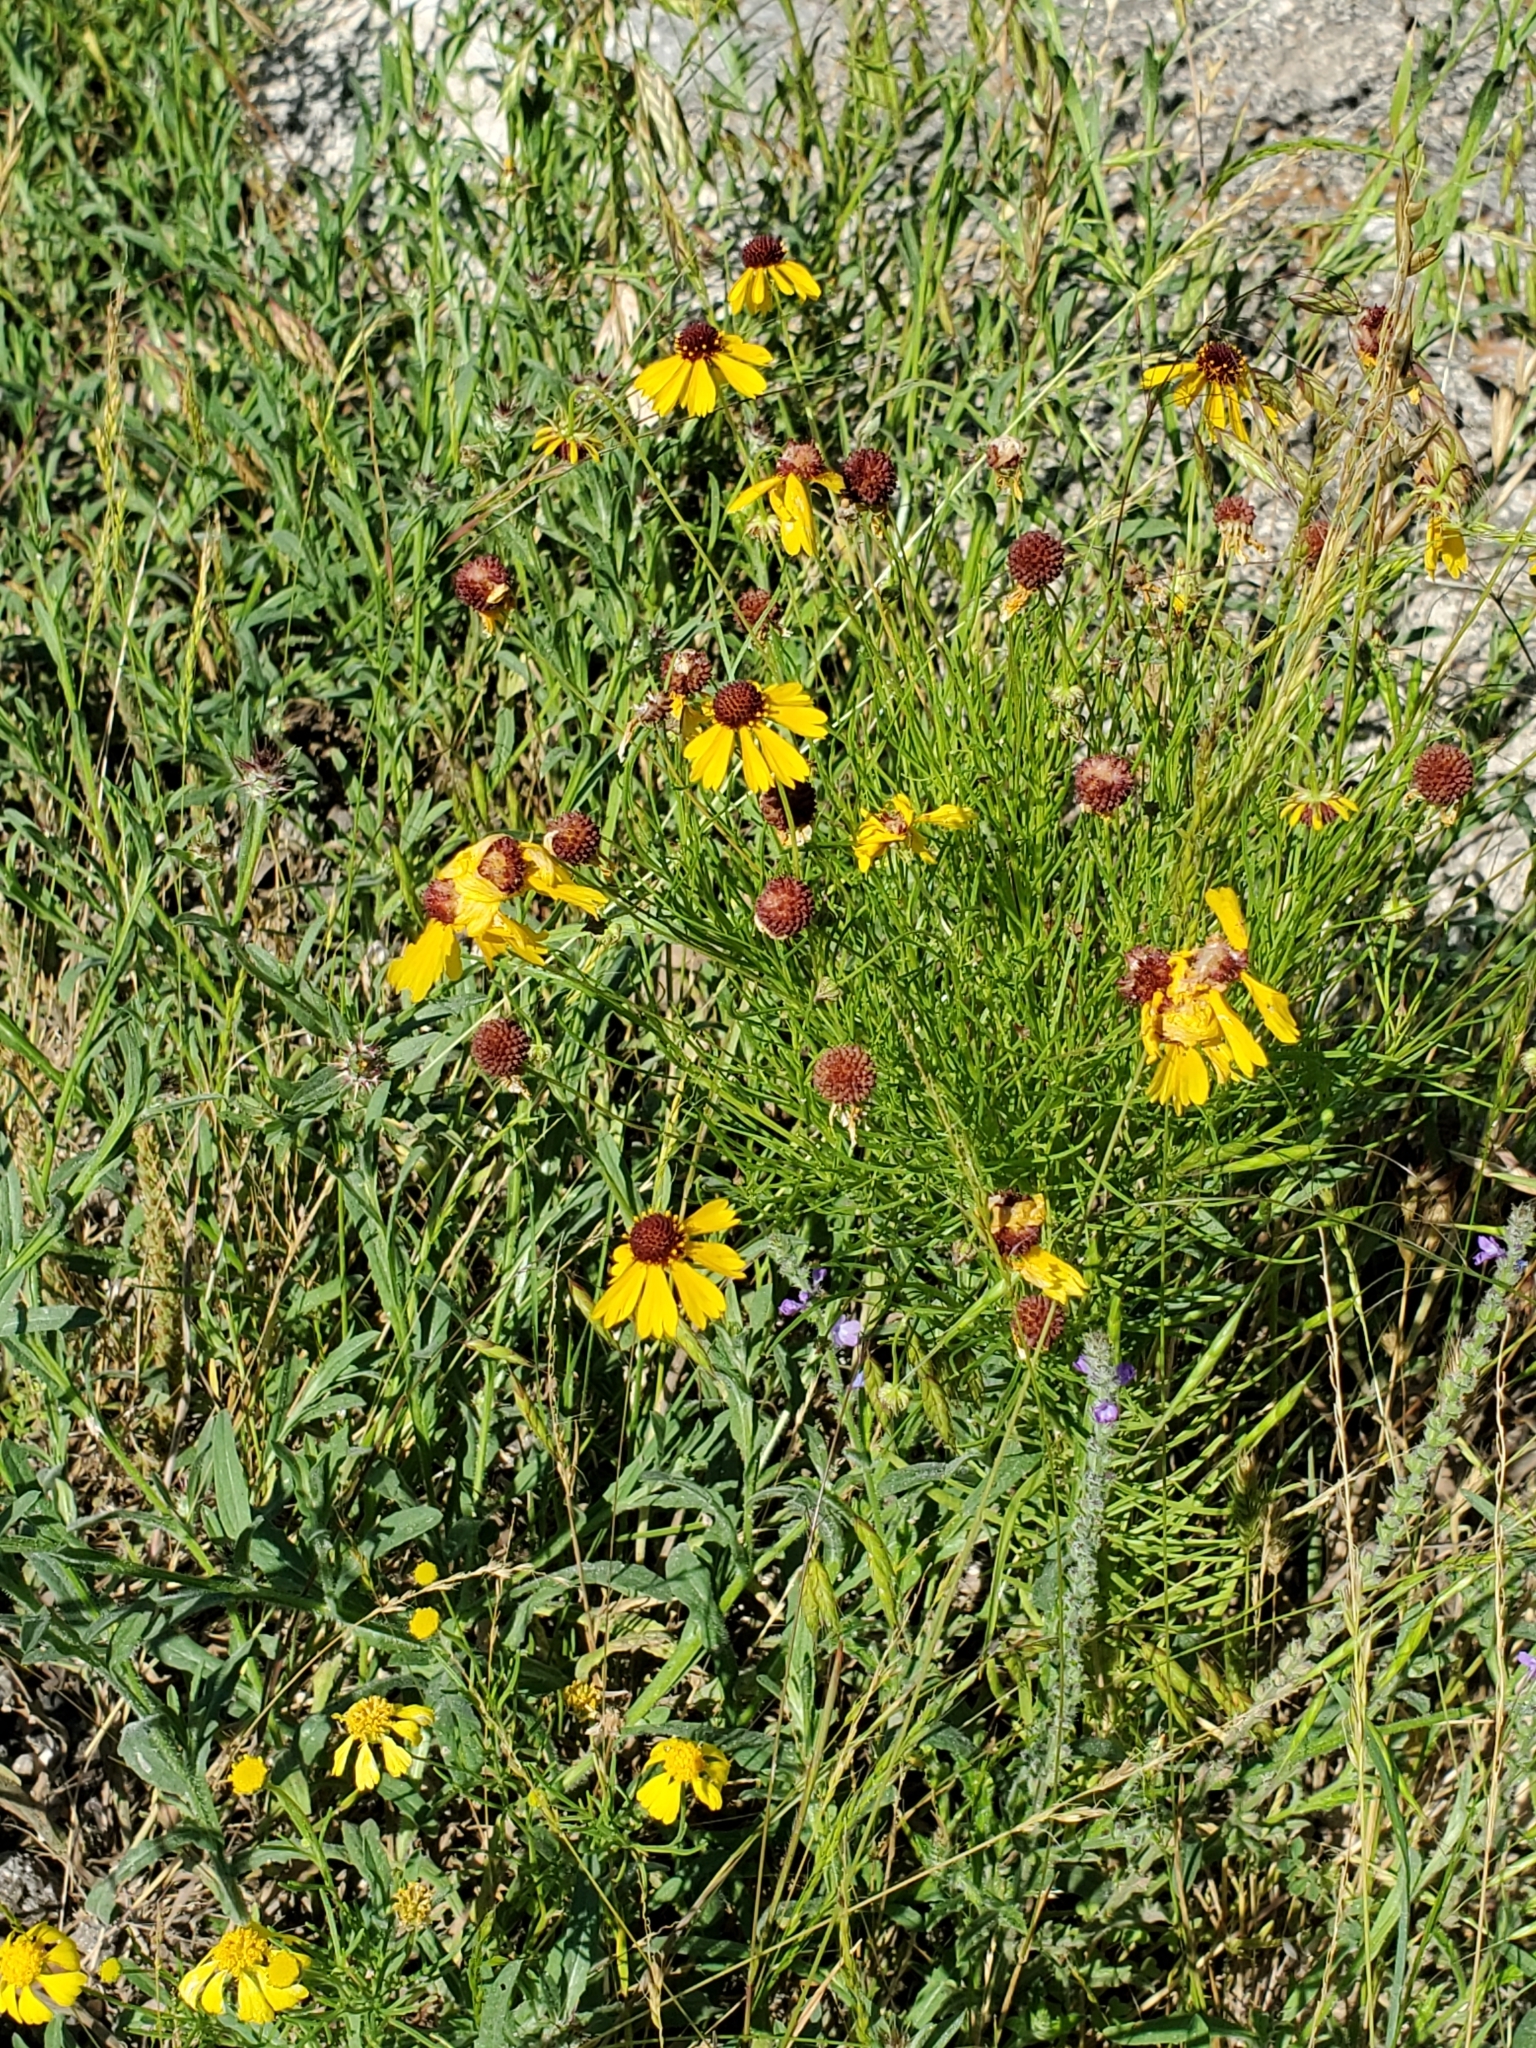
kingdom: Plantae
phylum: Tracheophyta
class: Magnoliopsida
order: Asterales
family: Asteraceae
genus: Helenium
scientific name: Helenium amarum
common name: Bitter sneezeweed
